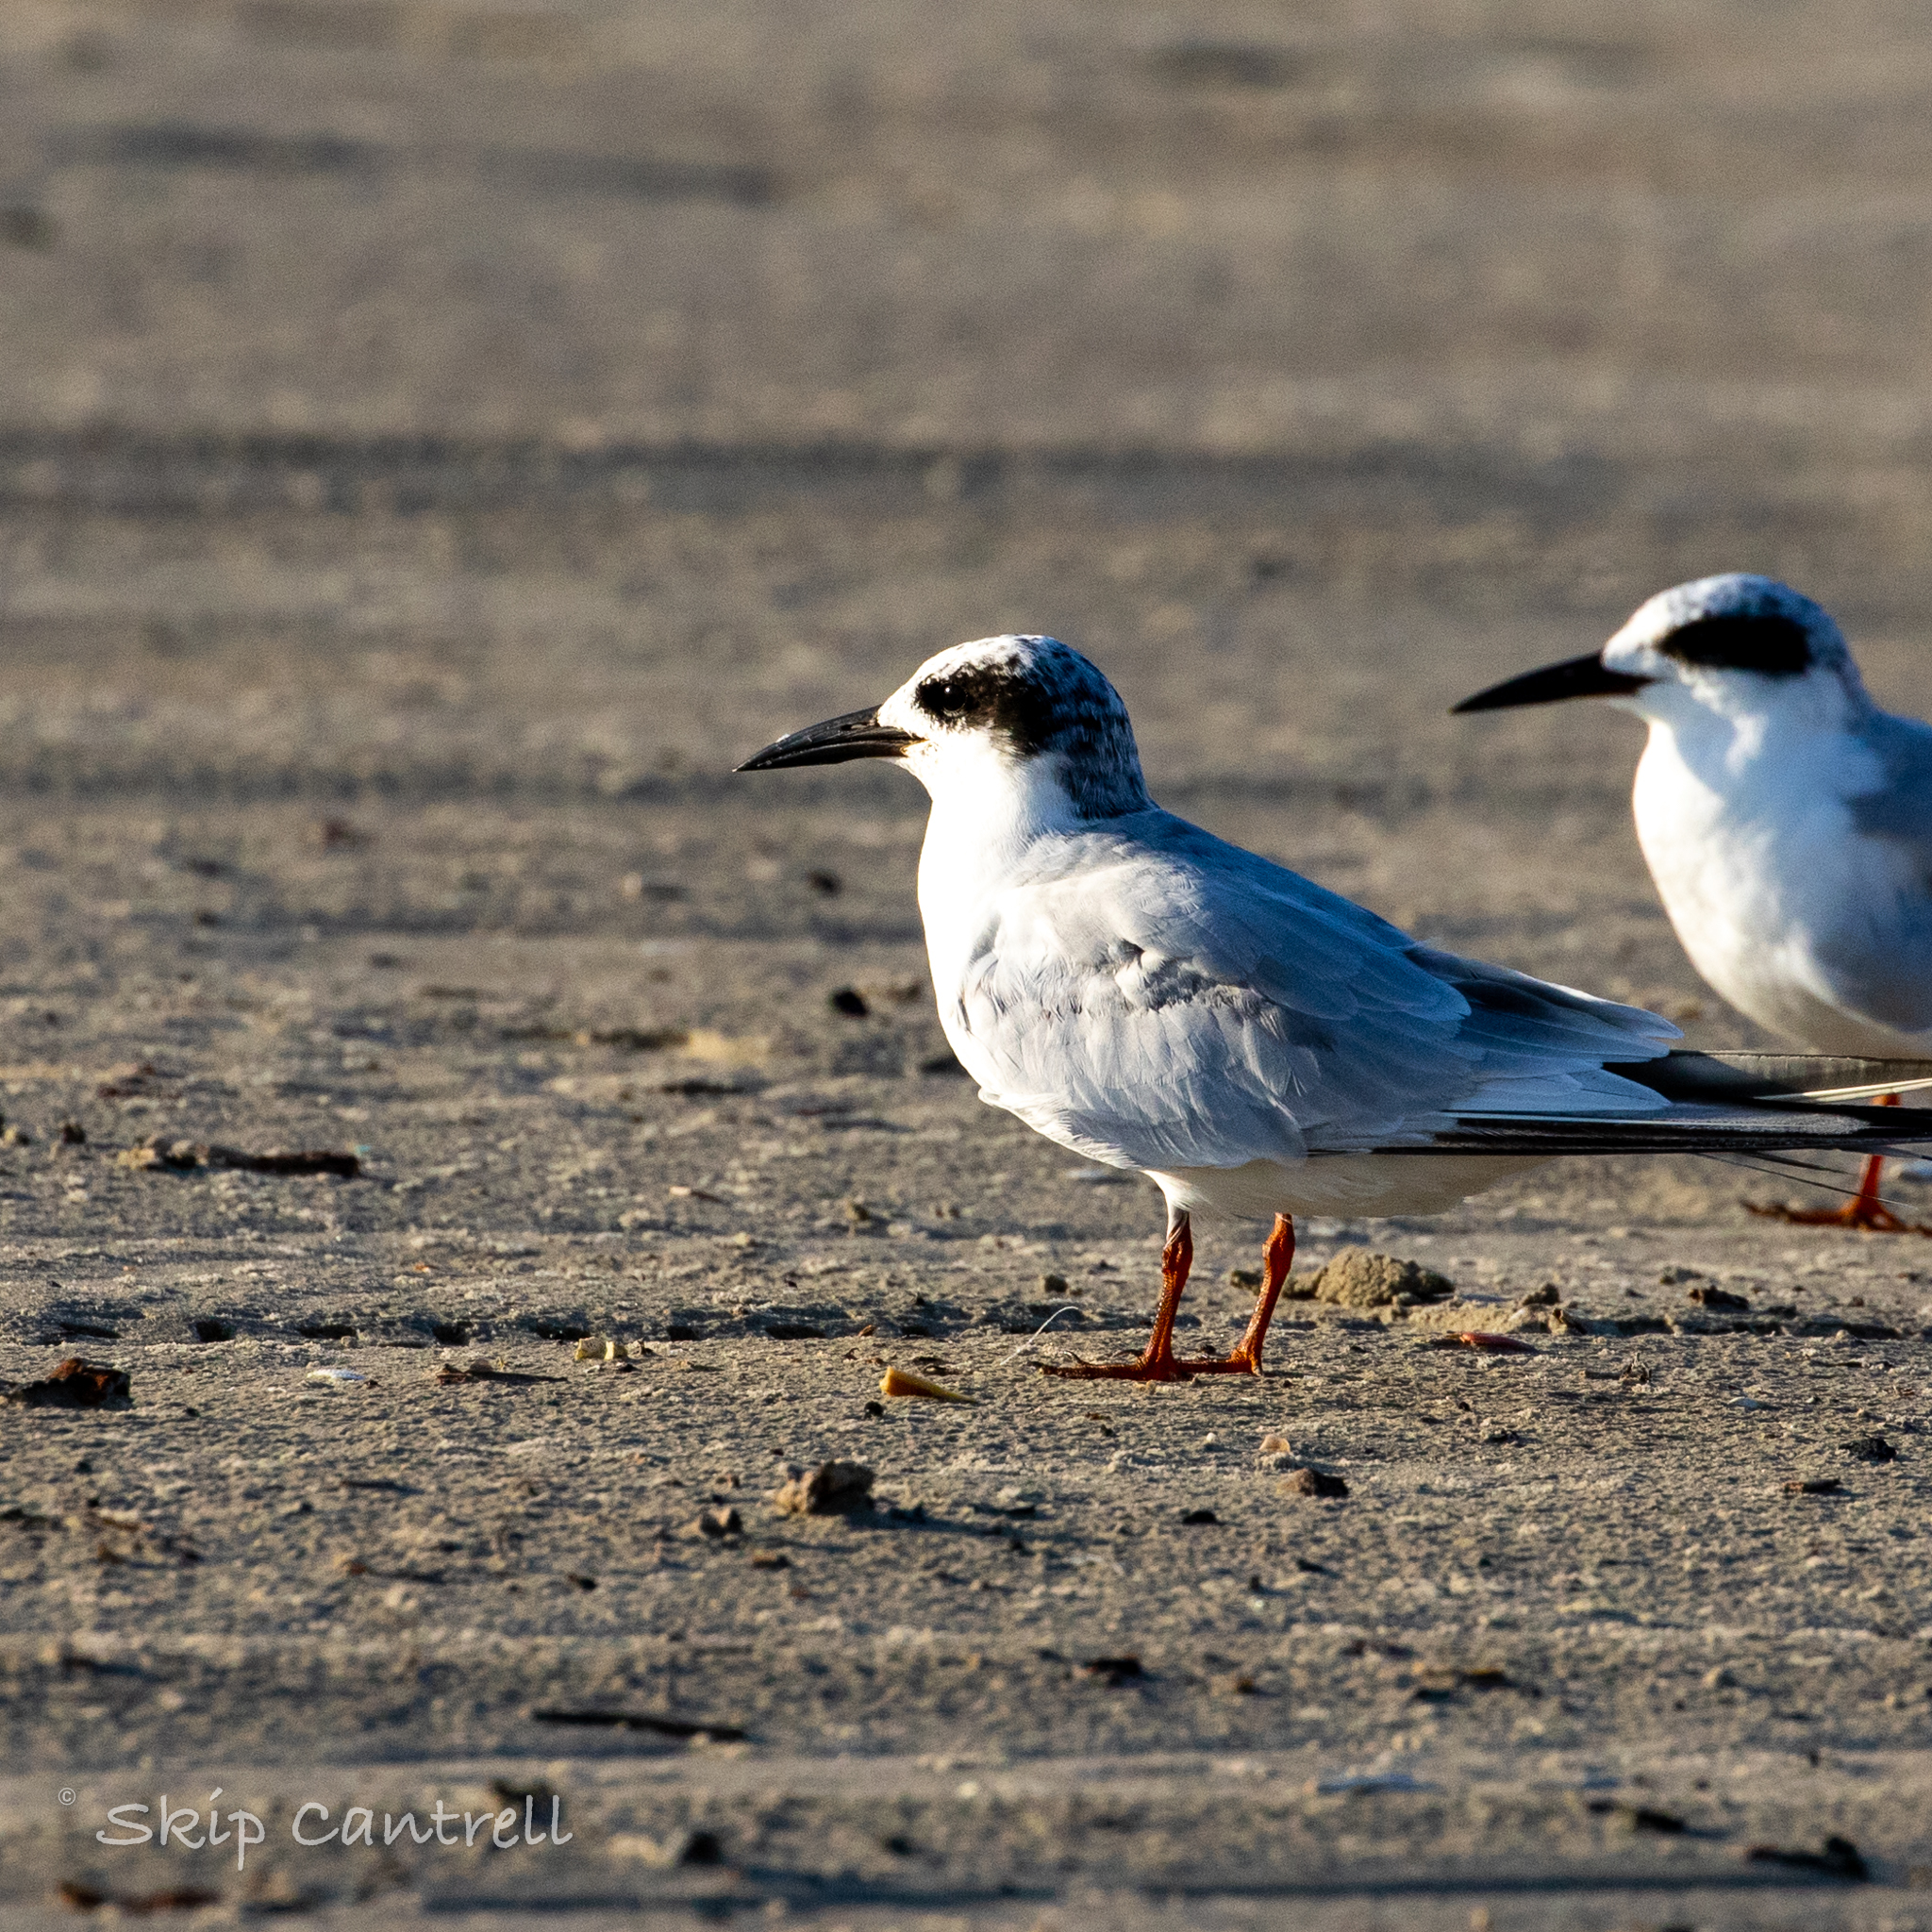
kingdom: Animalia
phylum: Chordata
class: Aves
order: Charadriiformes
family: Laridae
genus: Sterna
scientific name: Sterna forsteri
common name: Forster's tern
